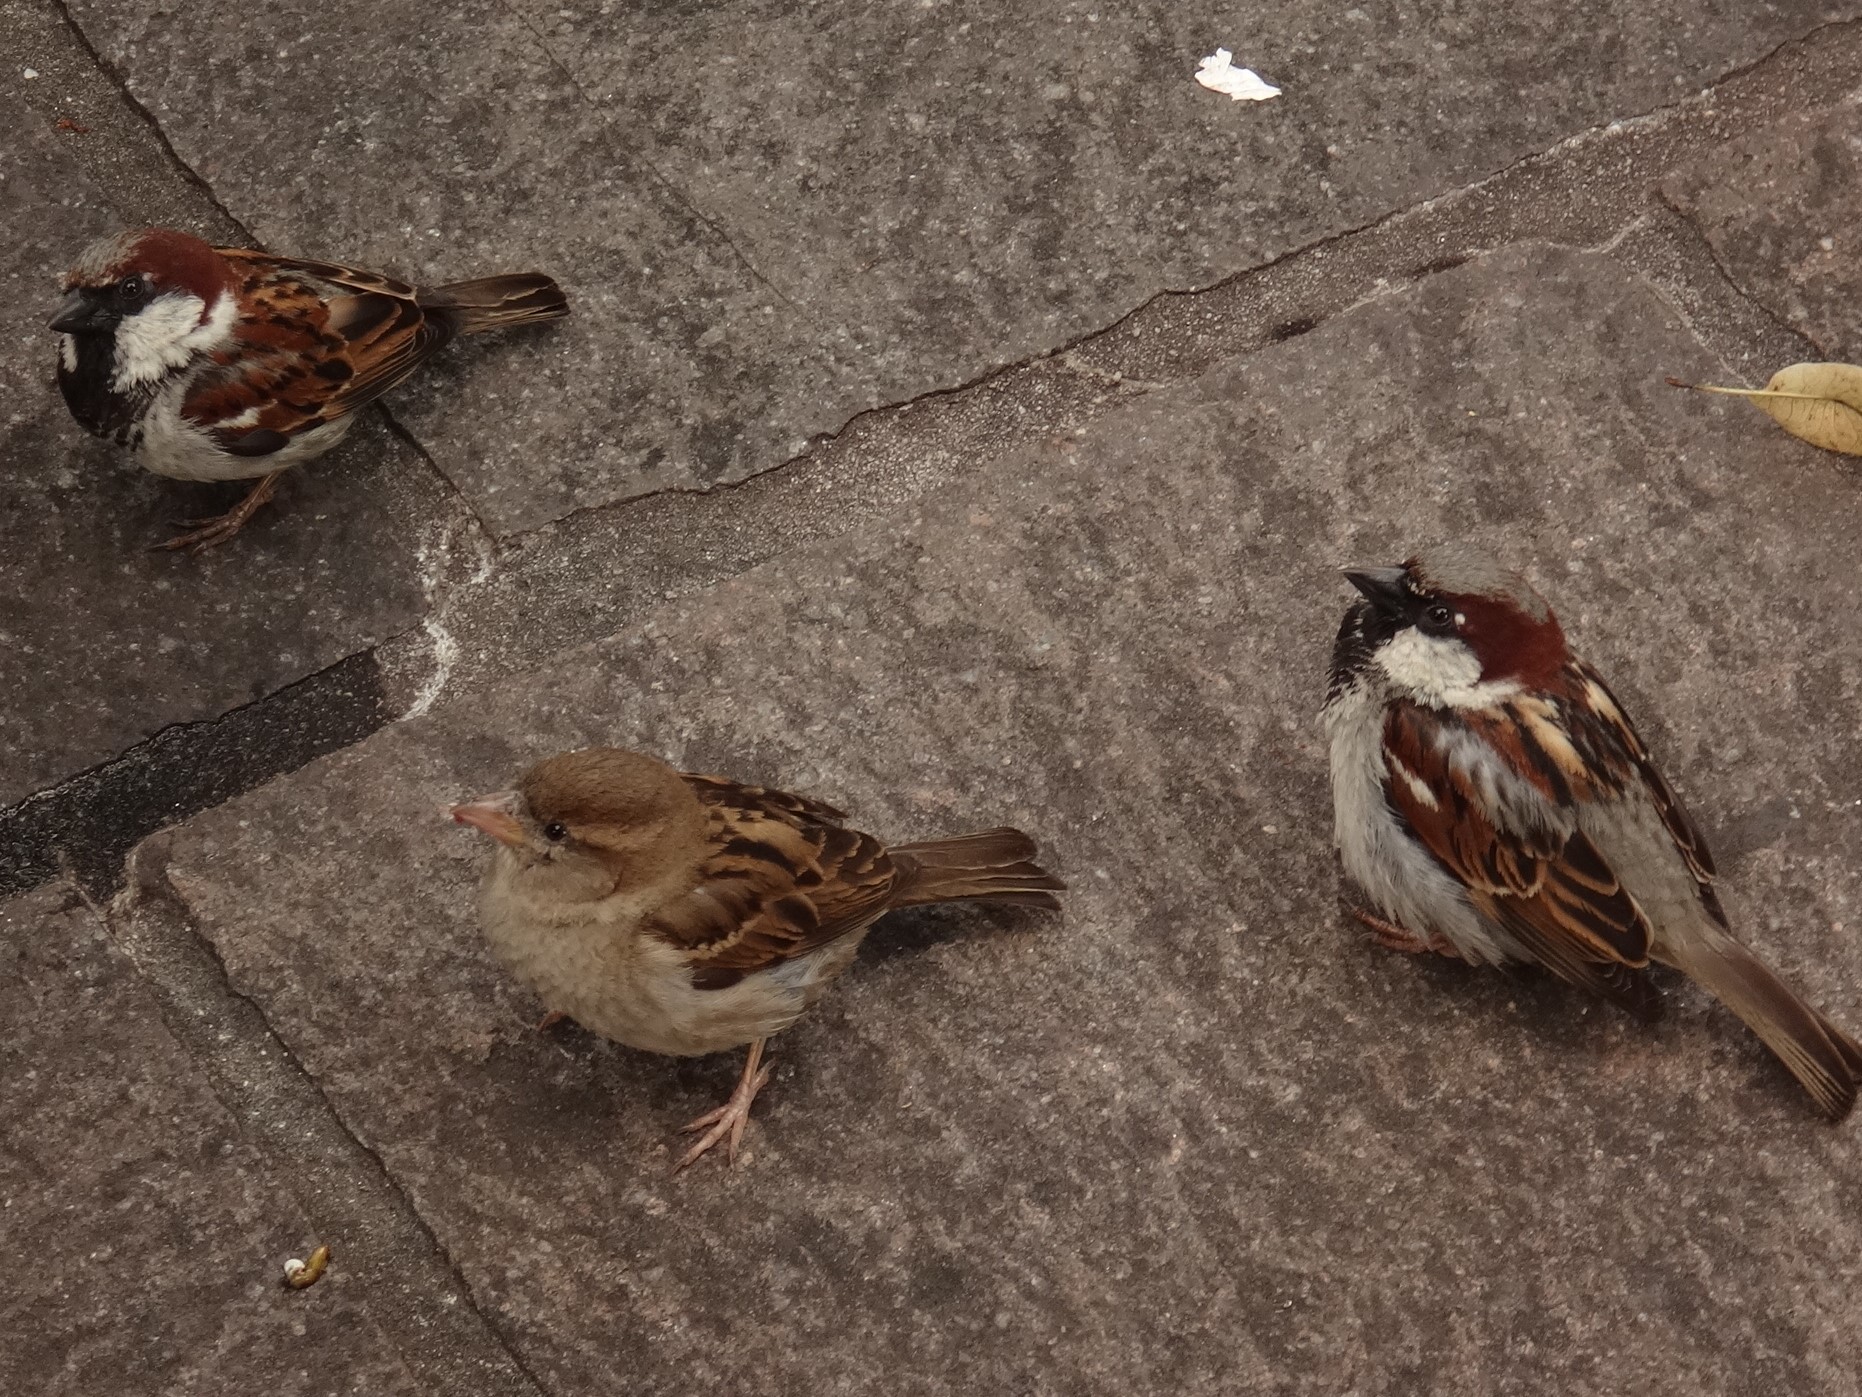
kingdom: Animalia
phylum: Chordata
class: Aves
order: Passeriformes
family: Passeridae
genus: Passer
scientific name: Passer domesticus
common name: House sparrow
